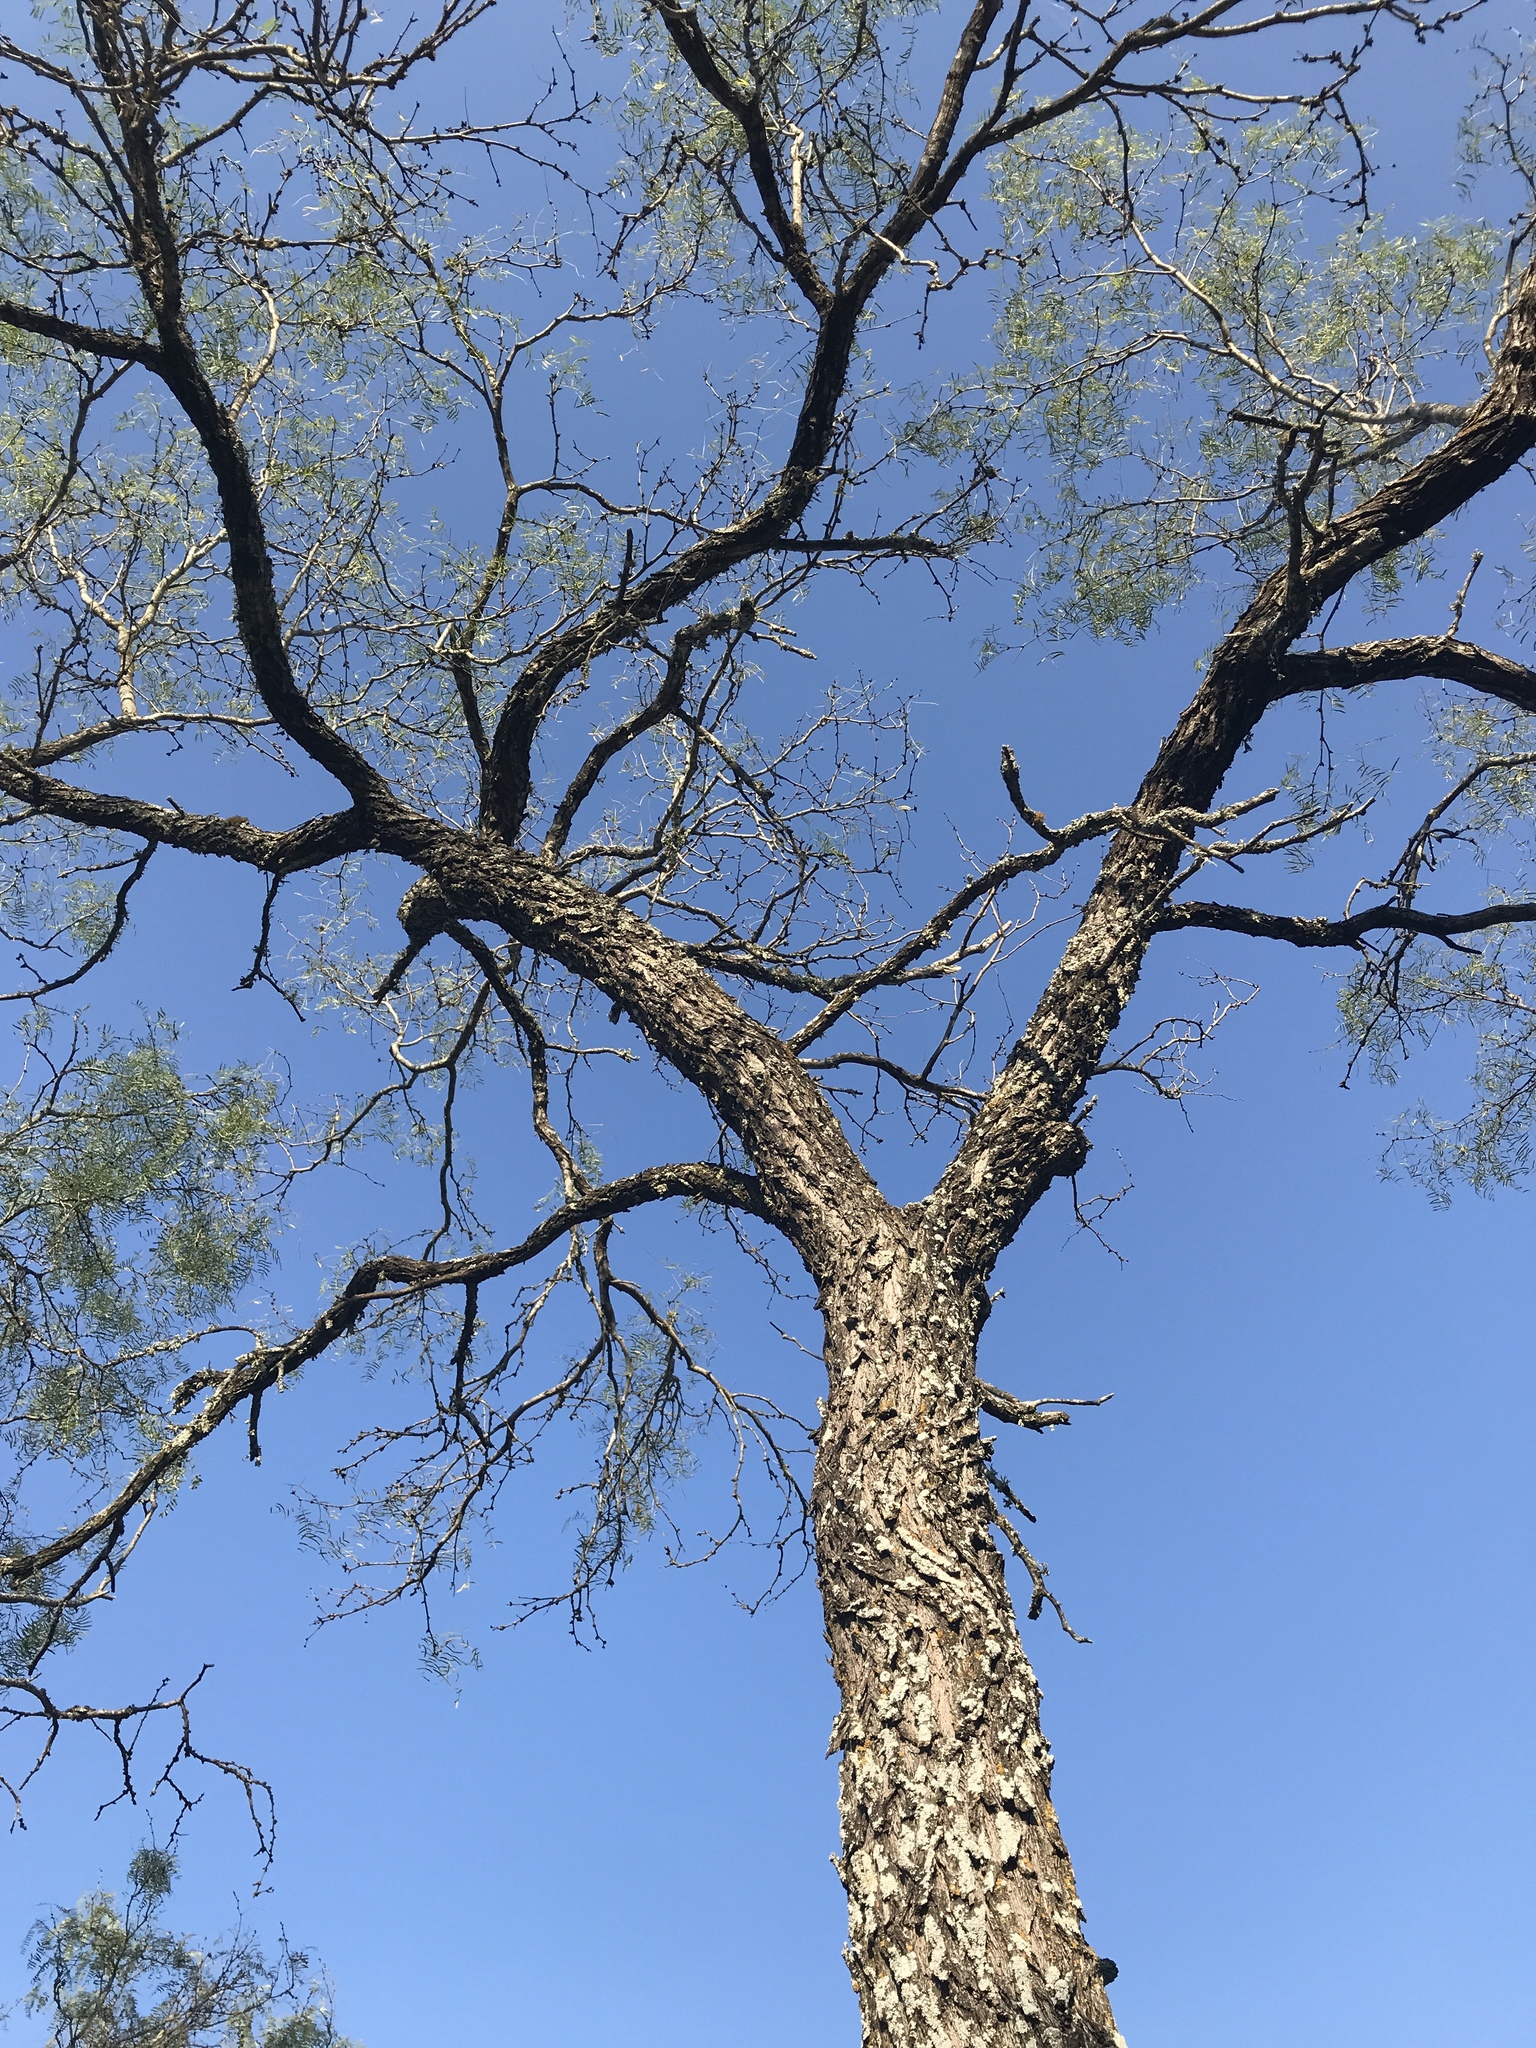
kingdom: Plantae
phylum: Tracheophyta
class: Magnoliopsida
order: Fabales
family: Fabaceae
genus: Prosopis
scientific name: Prosopis glandulosa
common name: Honey mesquite
